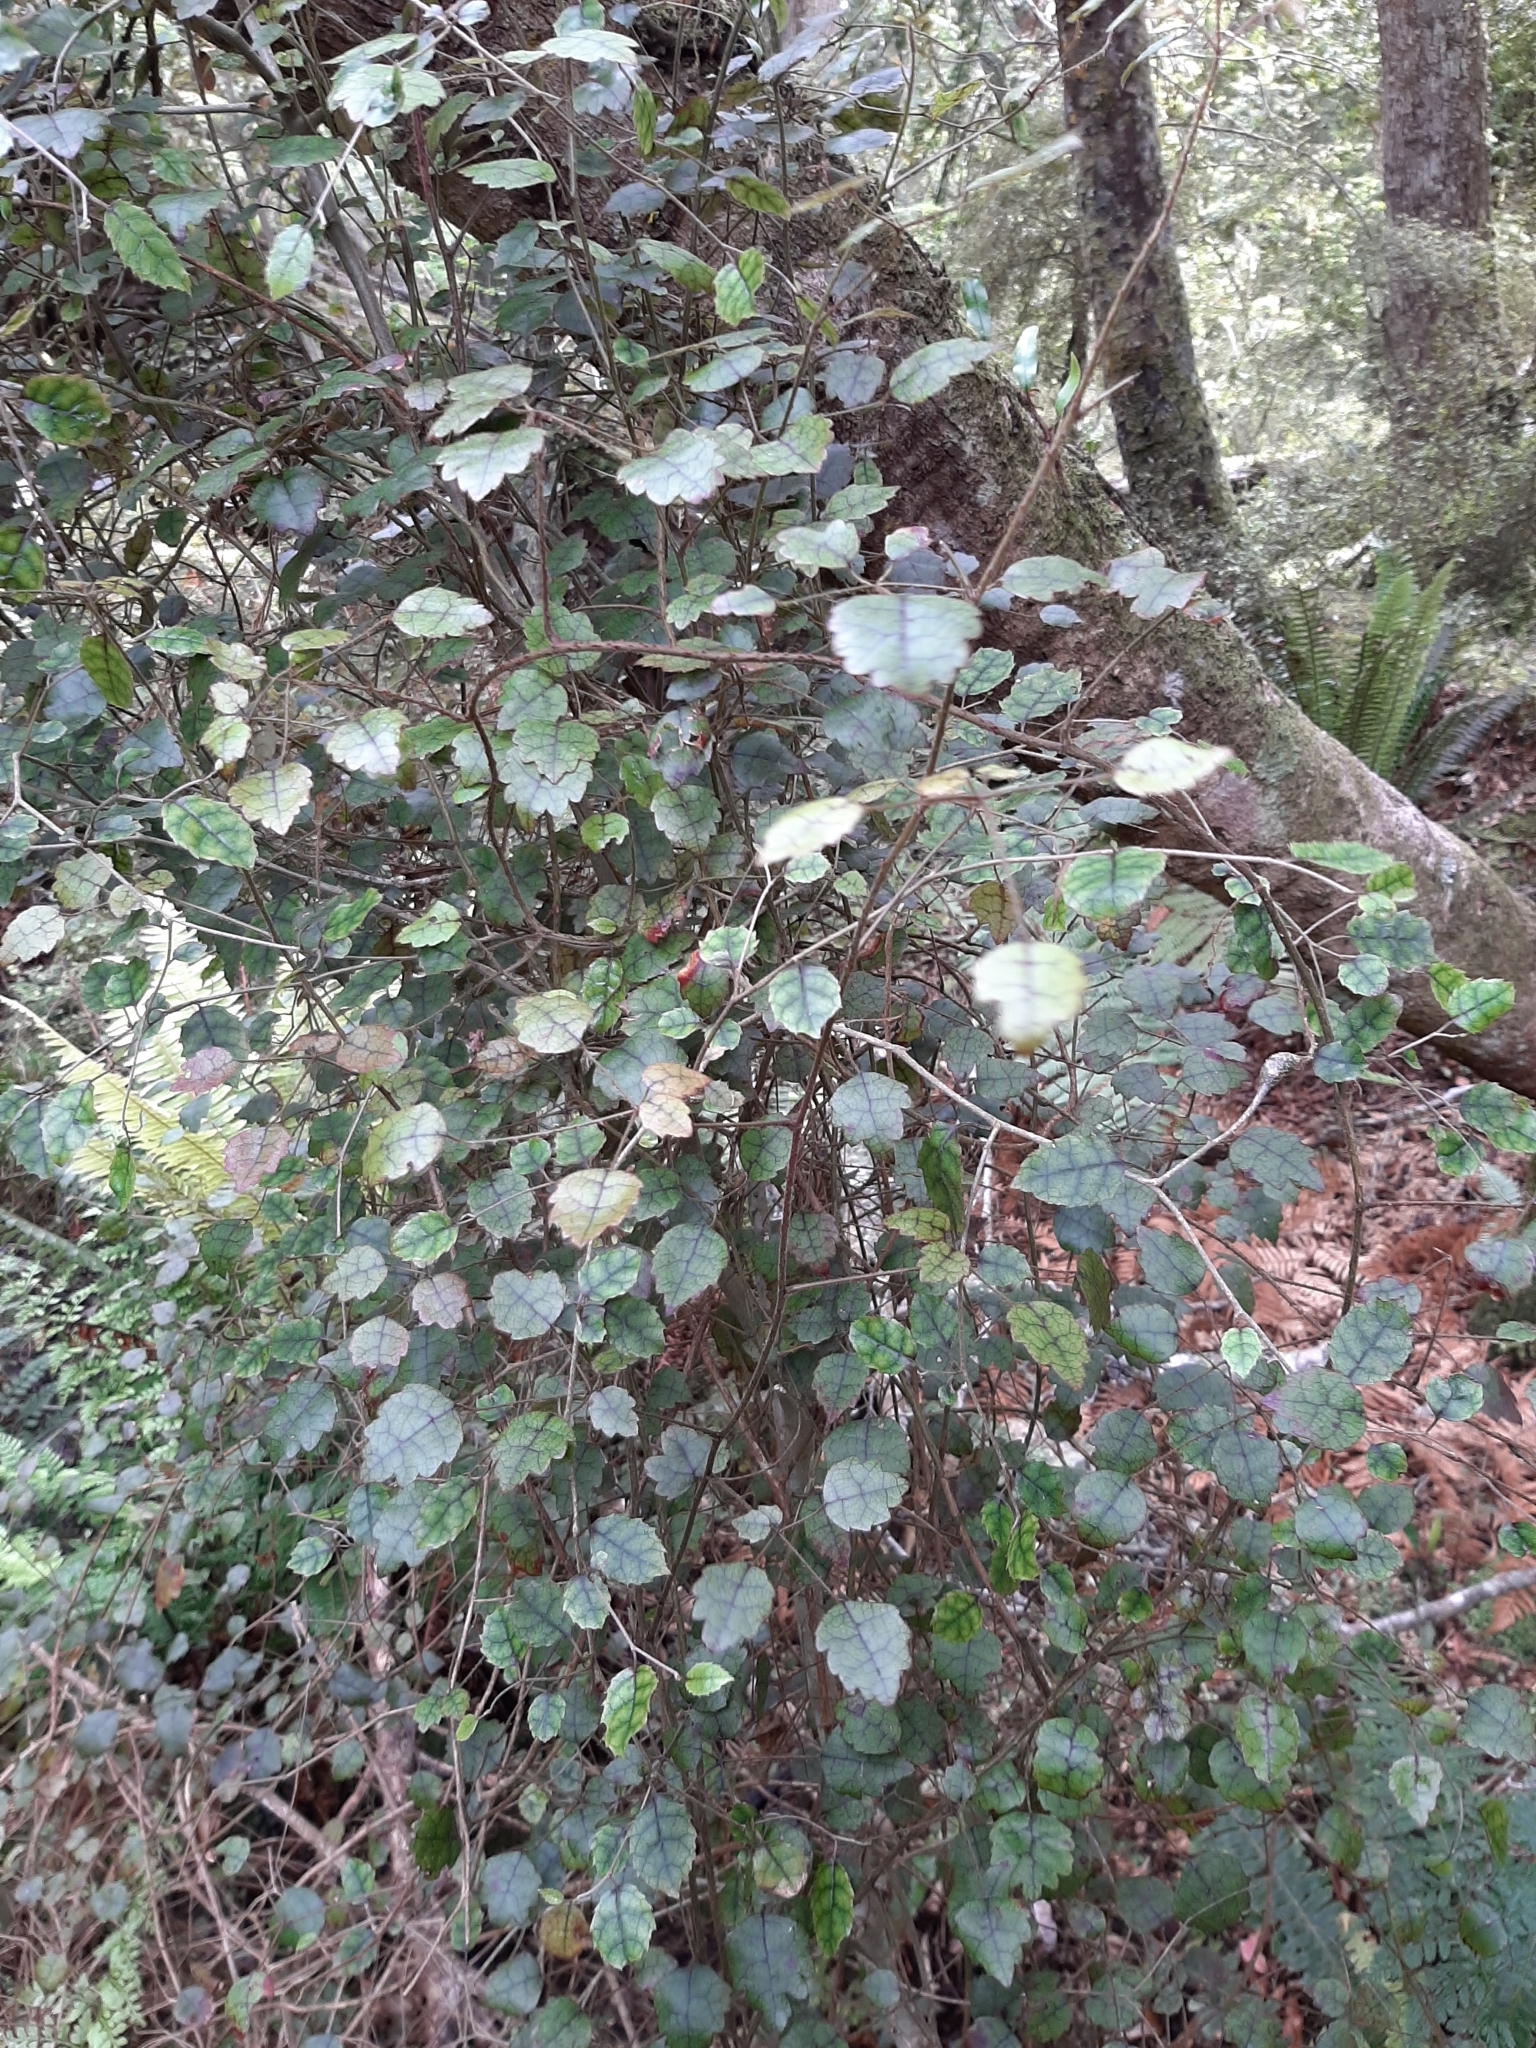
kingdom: Plantae
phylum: Tracheophyta
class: Magnoliopsida
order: Rosales
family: Rosaceae
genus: Rubus
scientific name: Rubus australis
